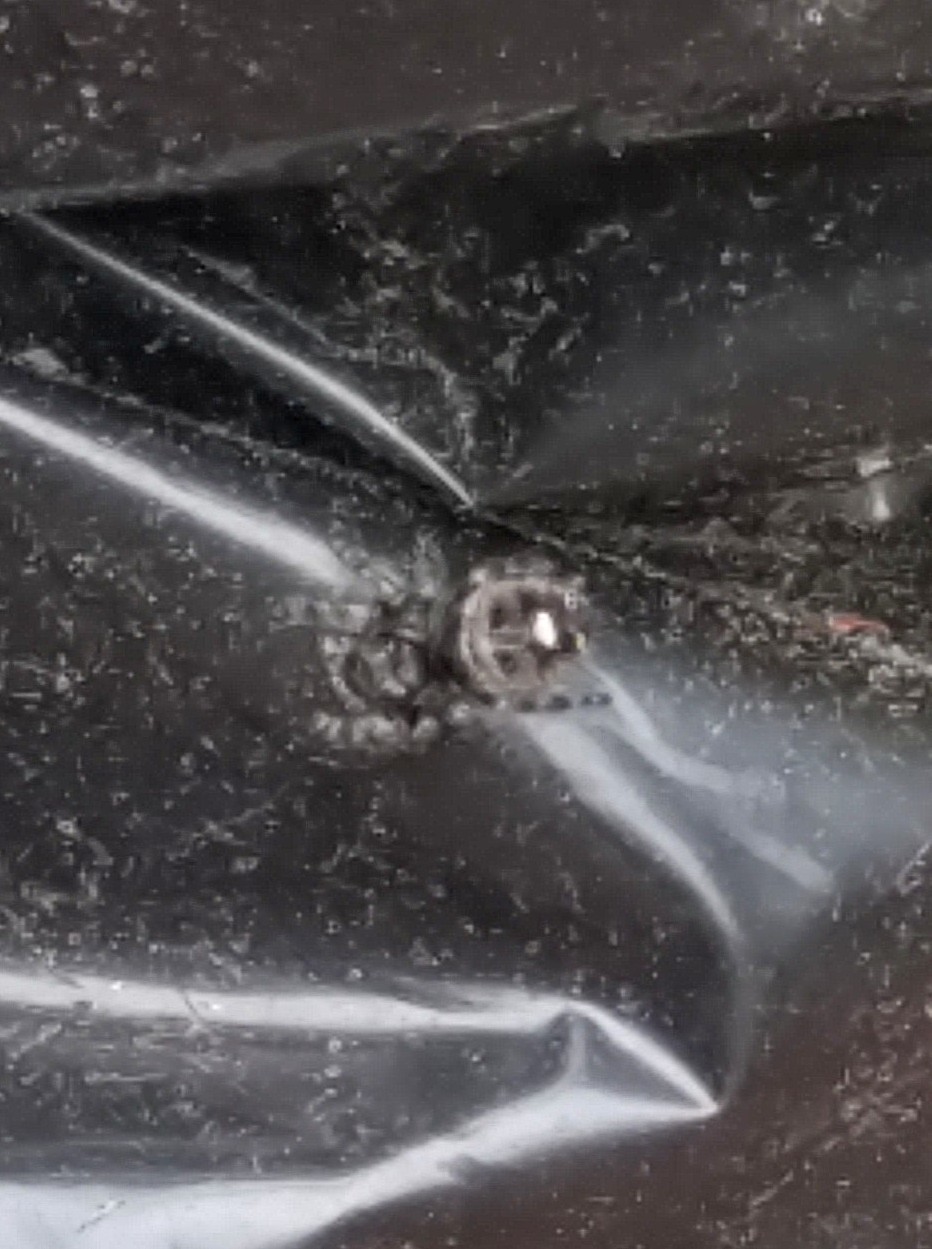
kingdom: Animalia
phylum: Arthropoda
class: Arachnida
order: Araneae
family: Salticidae
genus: Phidippus
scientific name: Phidippus audax
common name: Bold jumper
